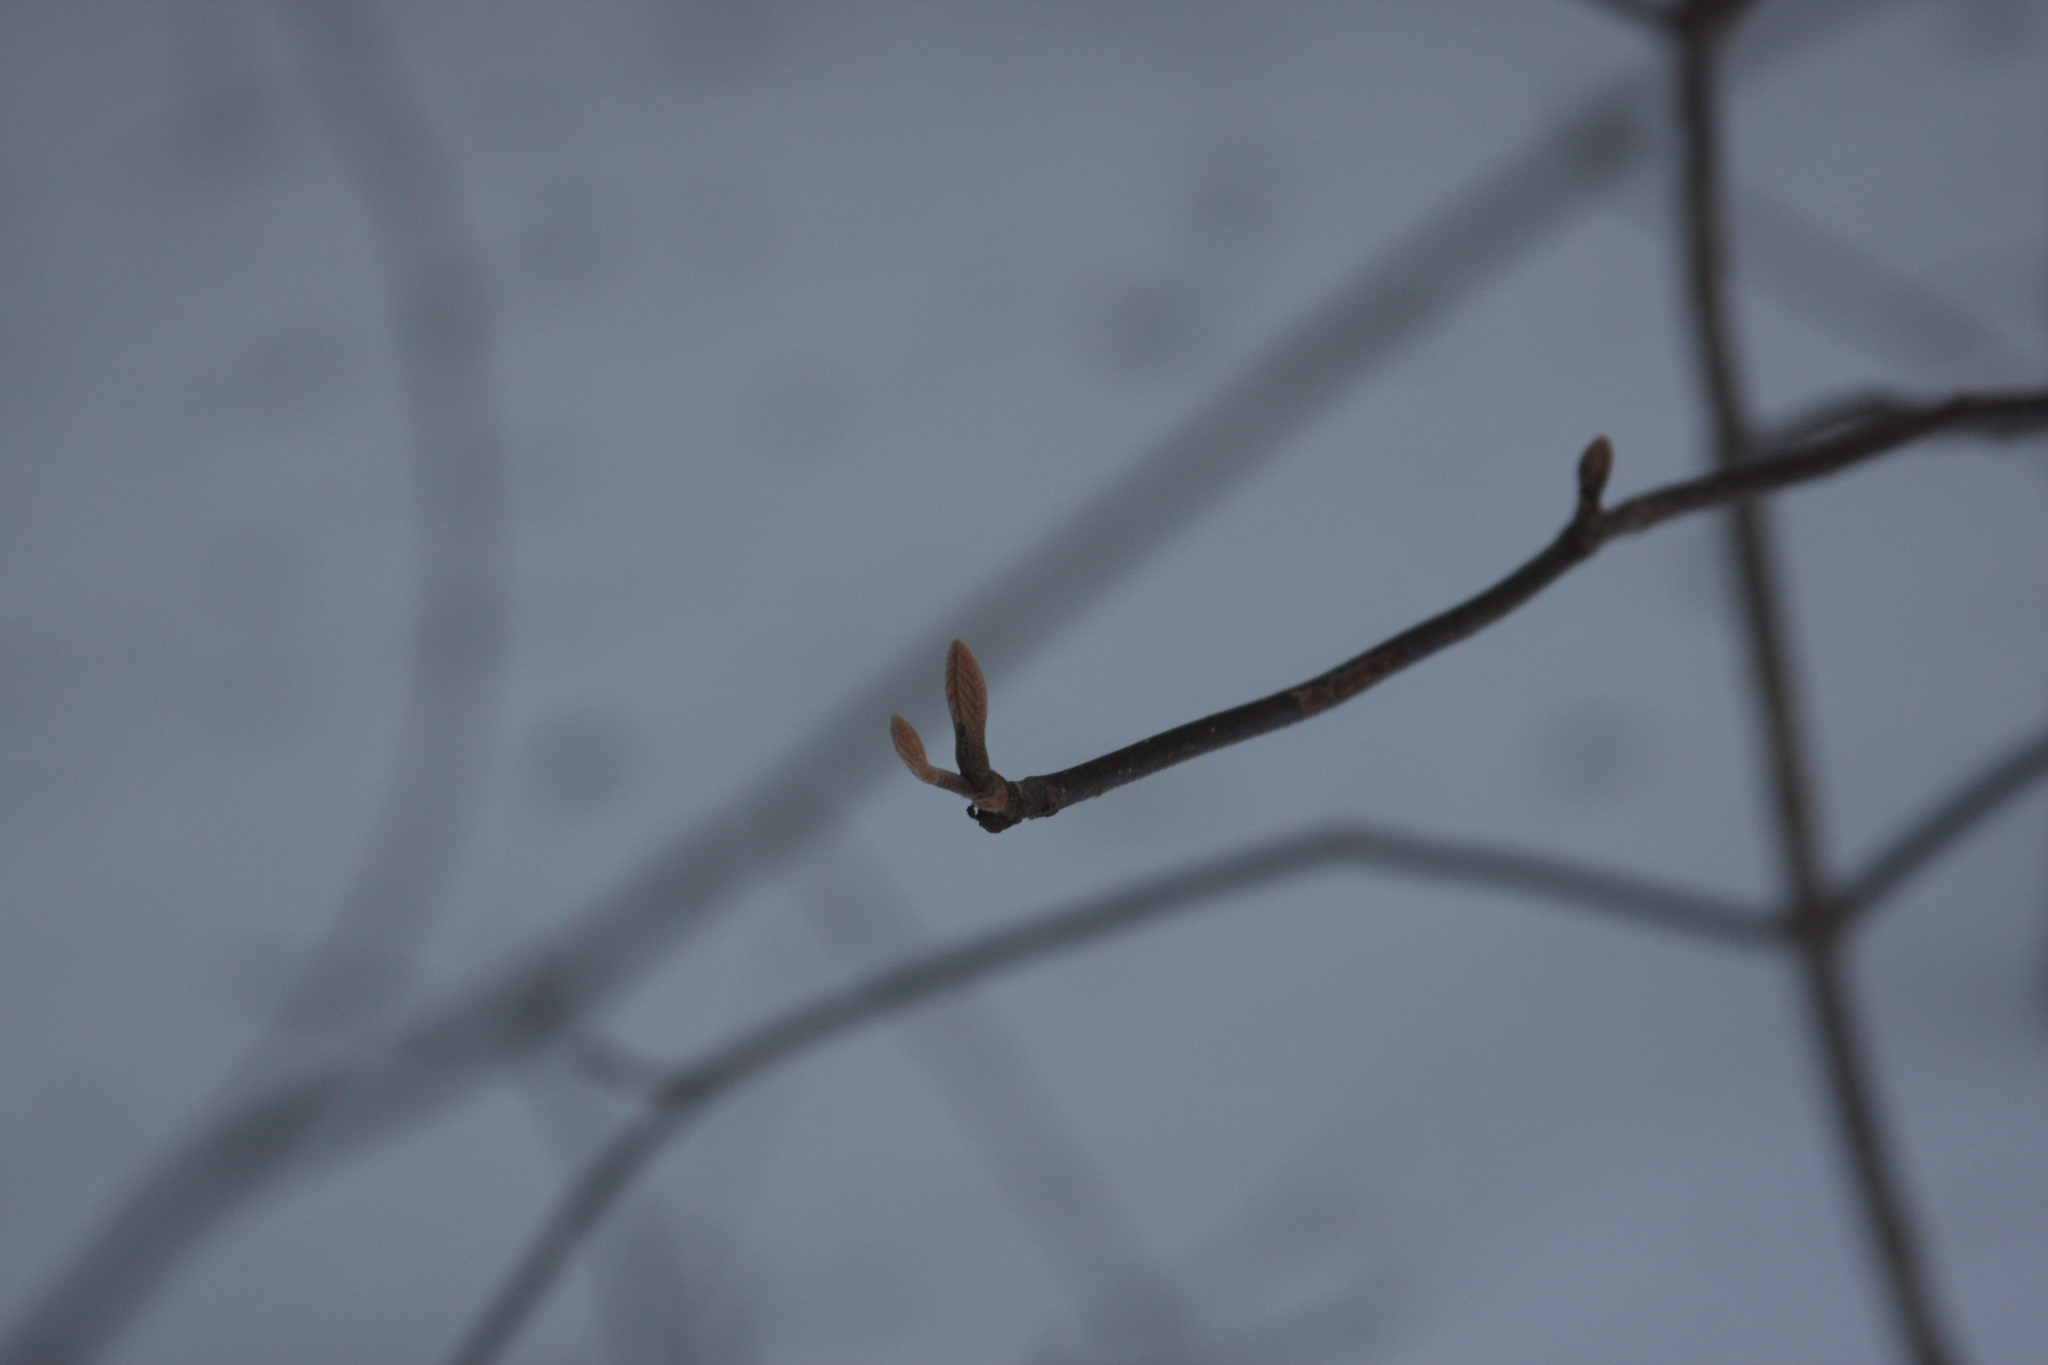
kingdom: Plantae
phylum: Tracheophyta
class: Magnoliopsida
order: Dipsacales
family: Viburnaceae
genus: Viburnum
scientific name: Viburnum lantanoides
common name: Hobblebush
